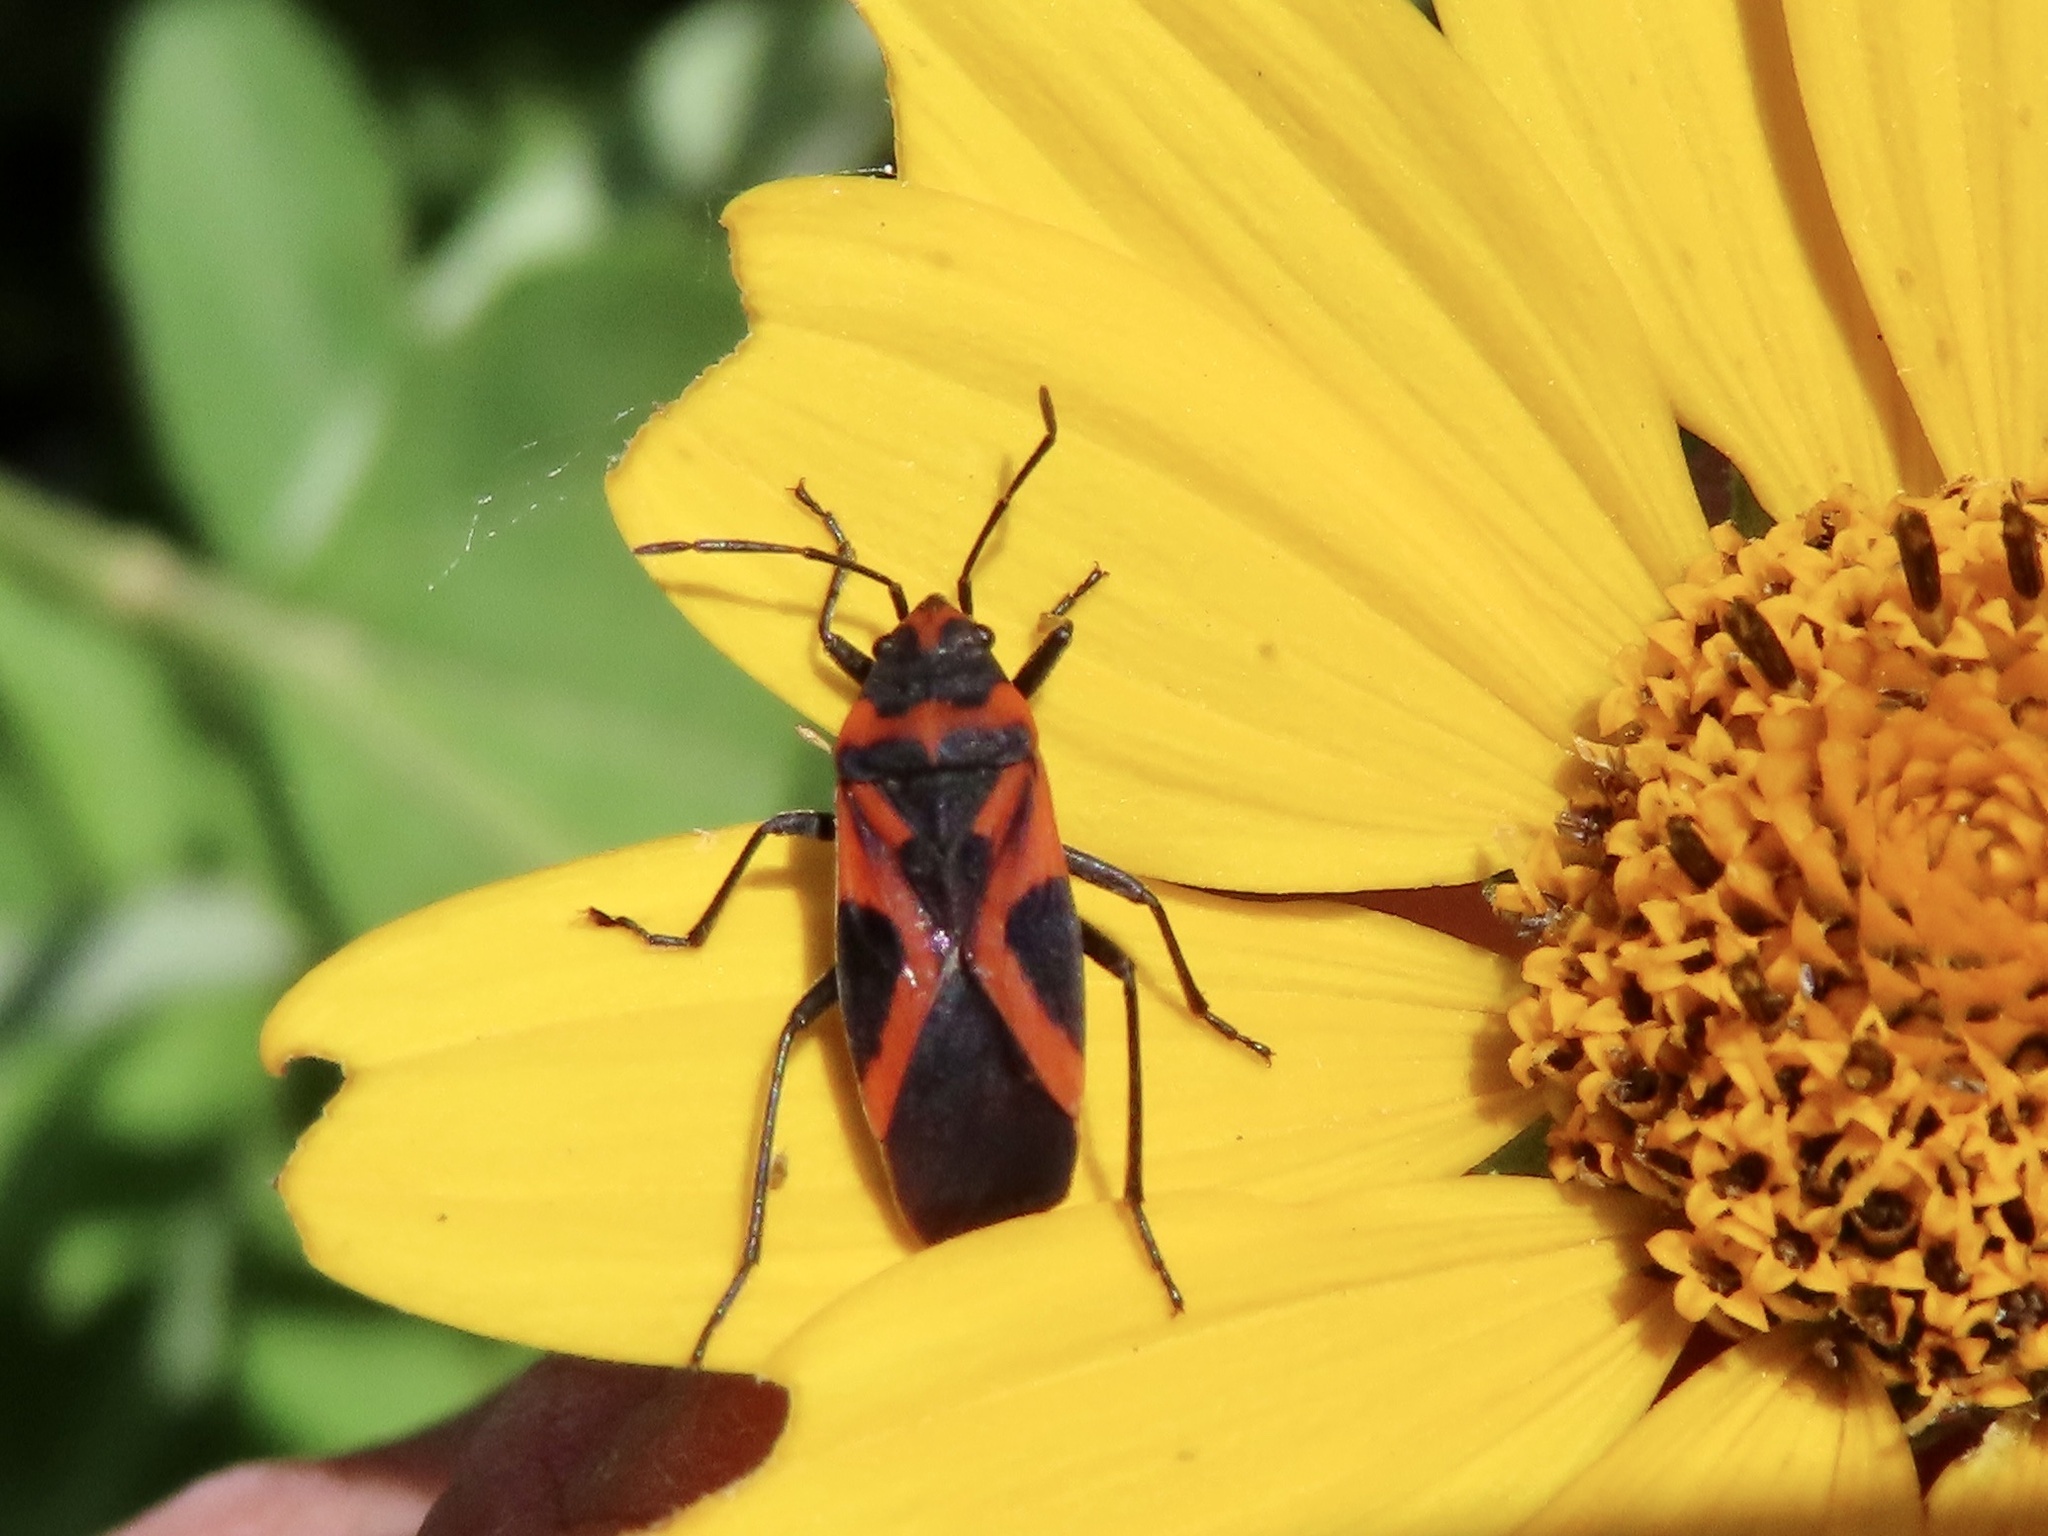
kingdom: Animalia
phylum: Arthropoda
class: Insecta
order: Hemiptera
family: Lygaeidae
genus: Lygaeus
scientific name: Lygaeus turcicus
